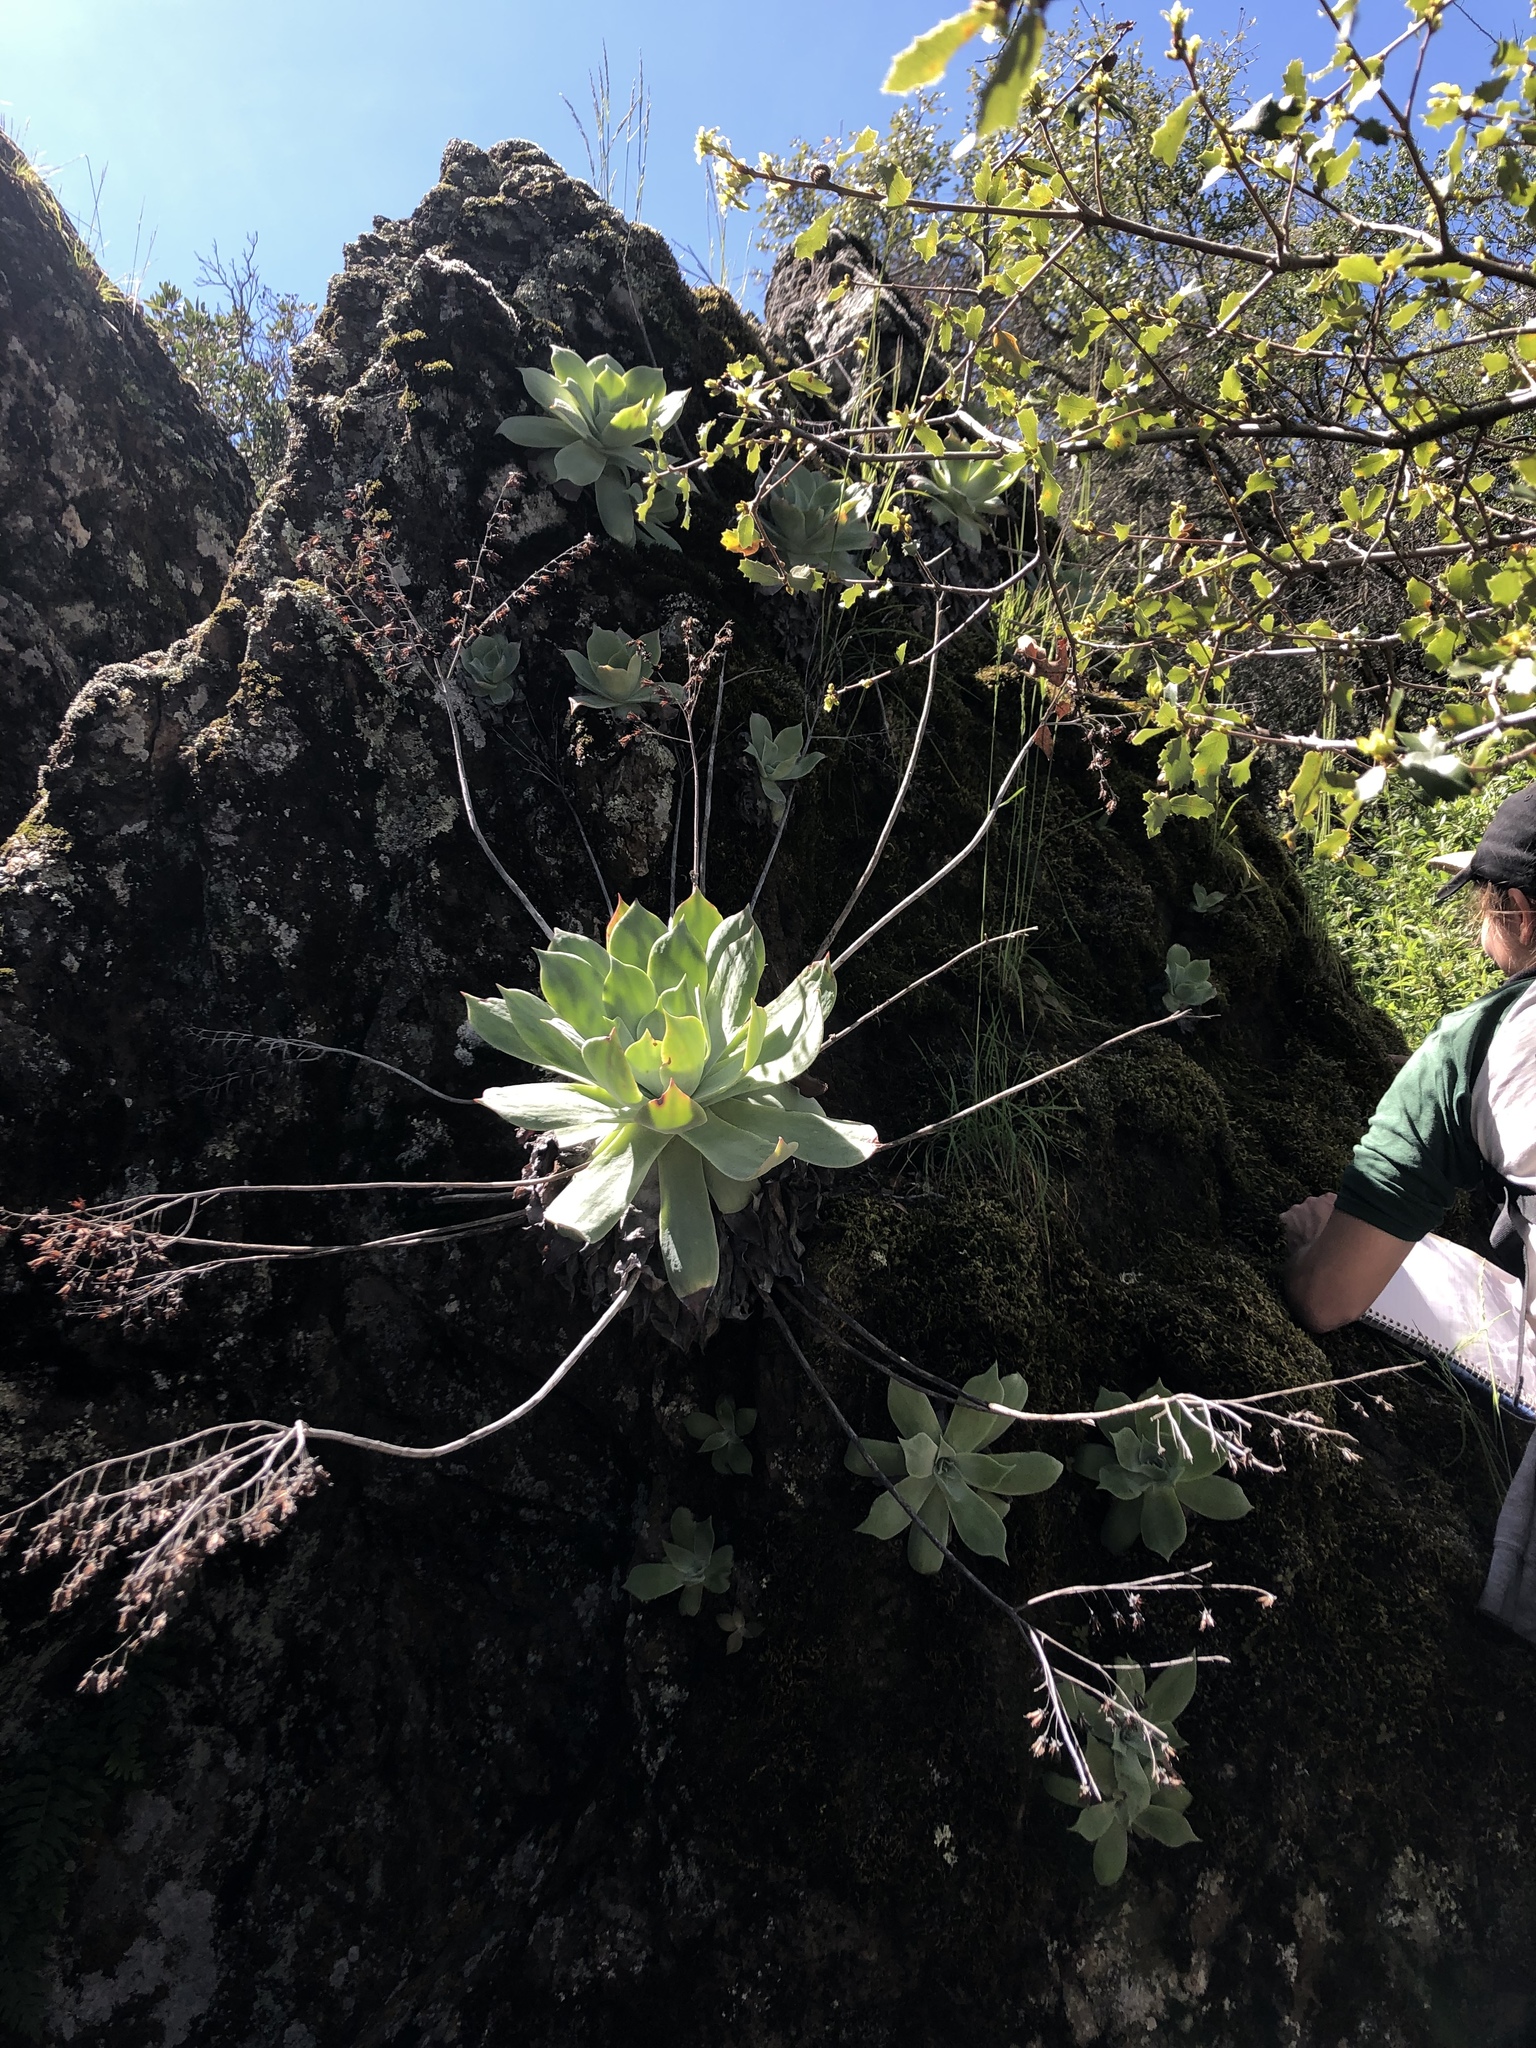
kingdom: Plantae
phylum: Tracheophyta
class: Magnoliopsida
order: Saxifragales
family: Crassulaceae
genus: Dudleya
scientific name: Dudleya pulverulenta
